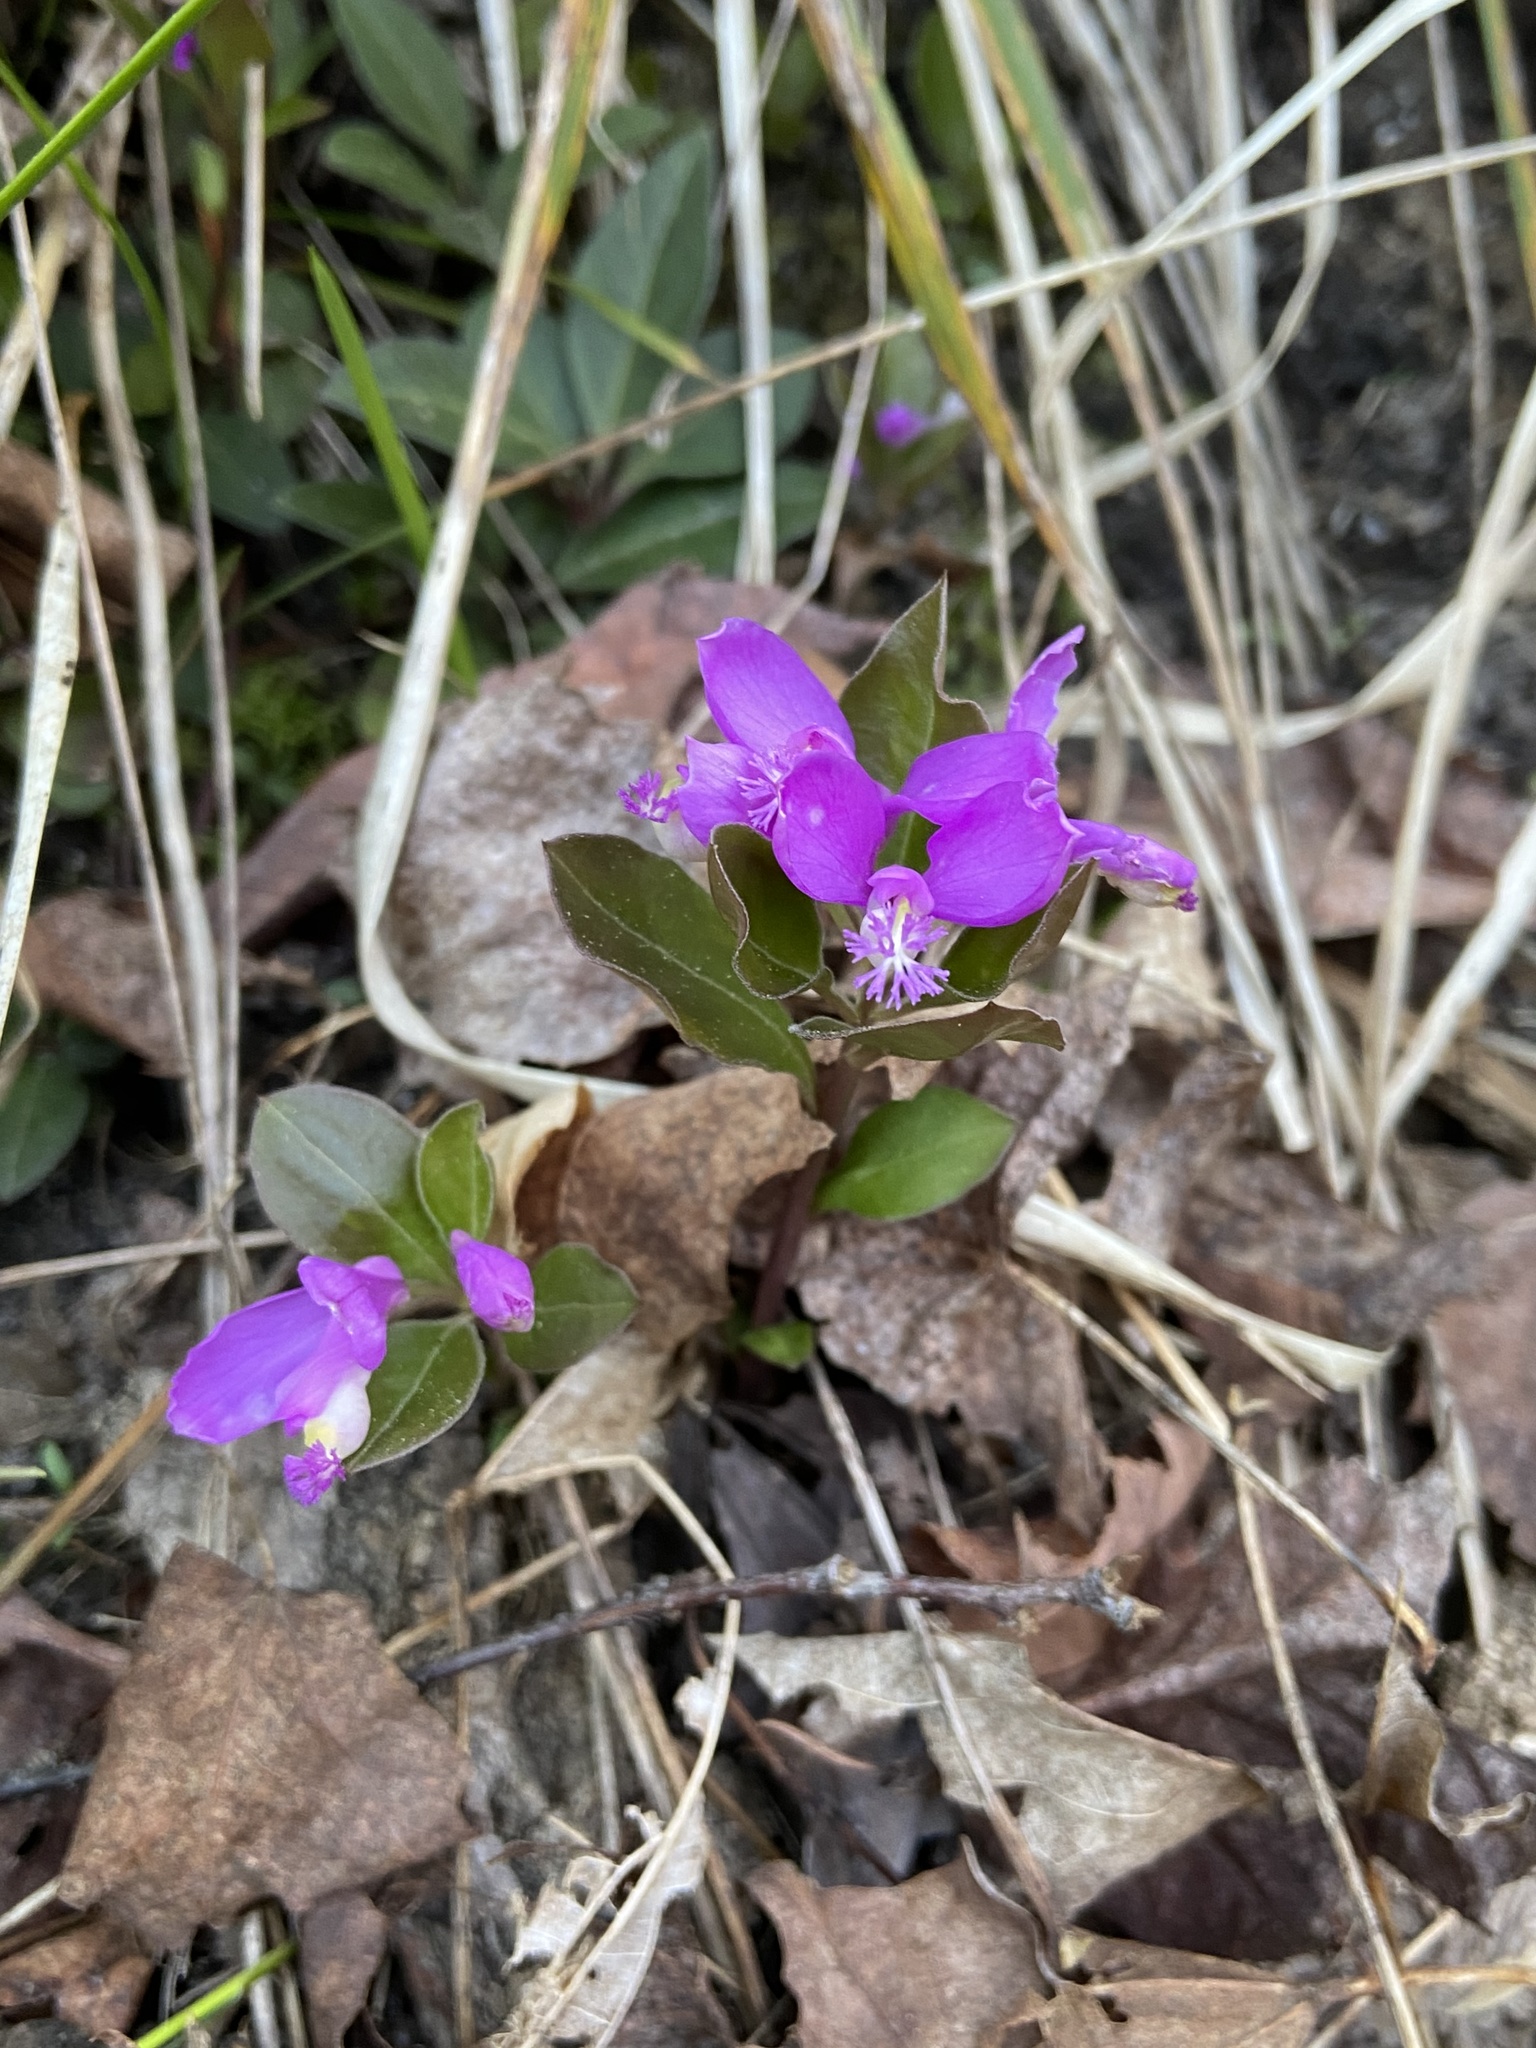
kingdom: Plantae
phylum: Tracheophyta
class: Magnoliopsida
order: Fabales
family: Polygalaceae
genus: Polygaloides
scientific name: Polygaloides paucifolia
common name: Bird-on-the-wing
